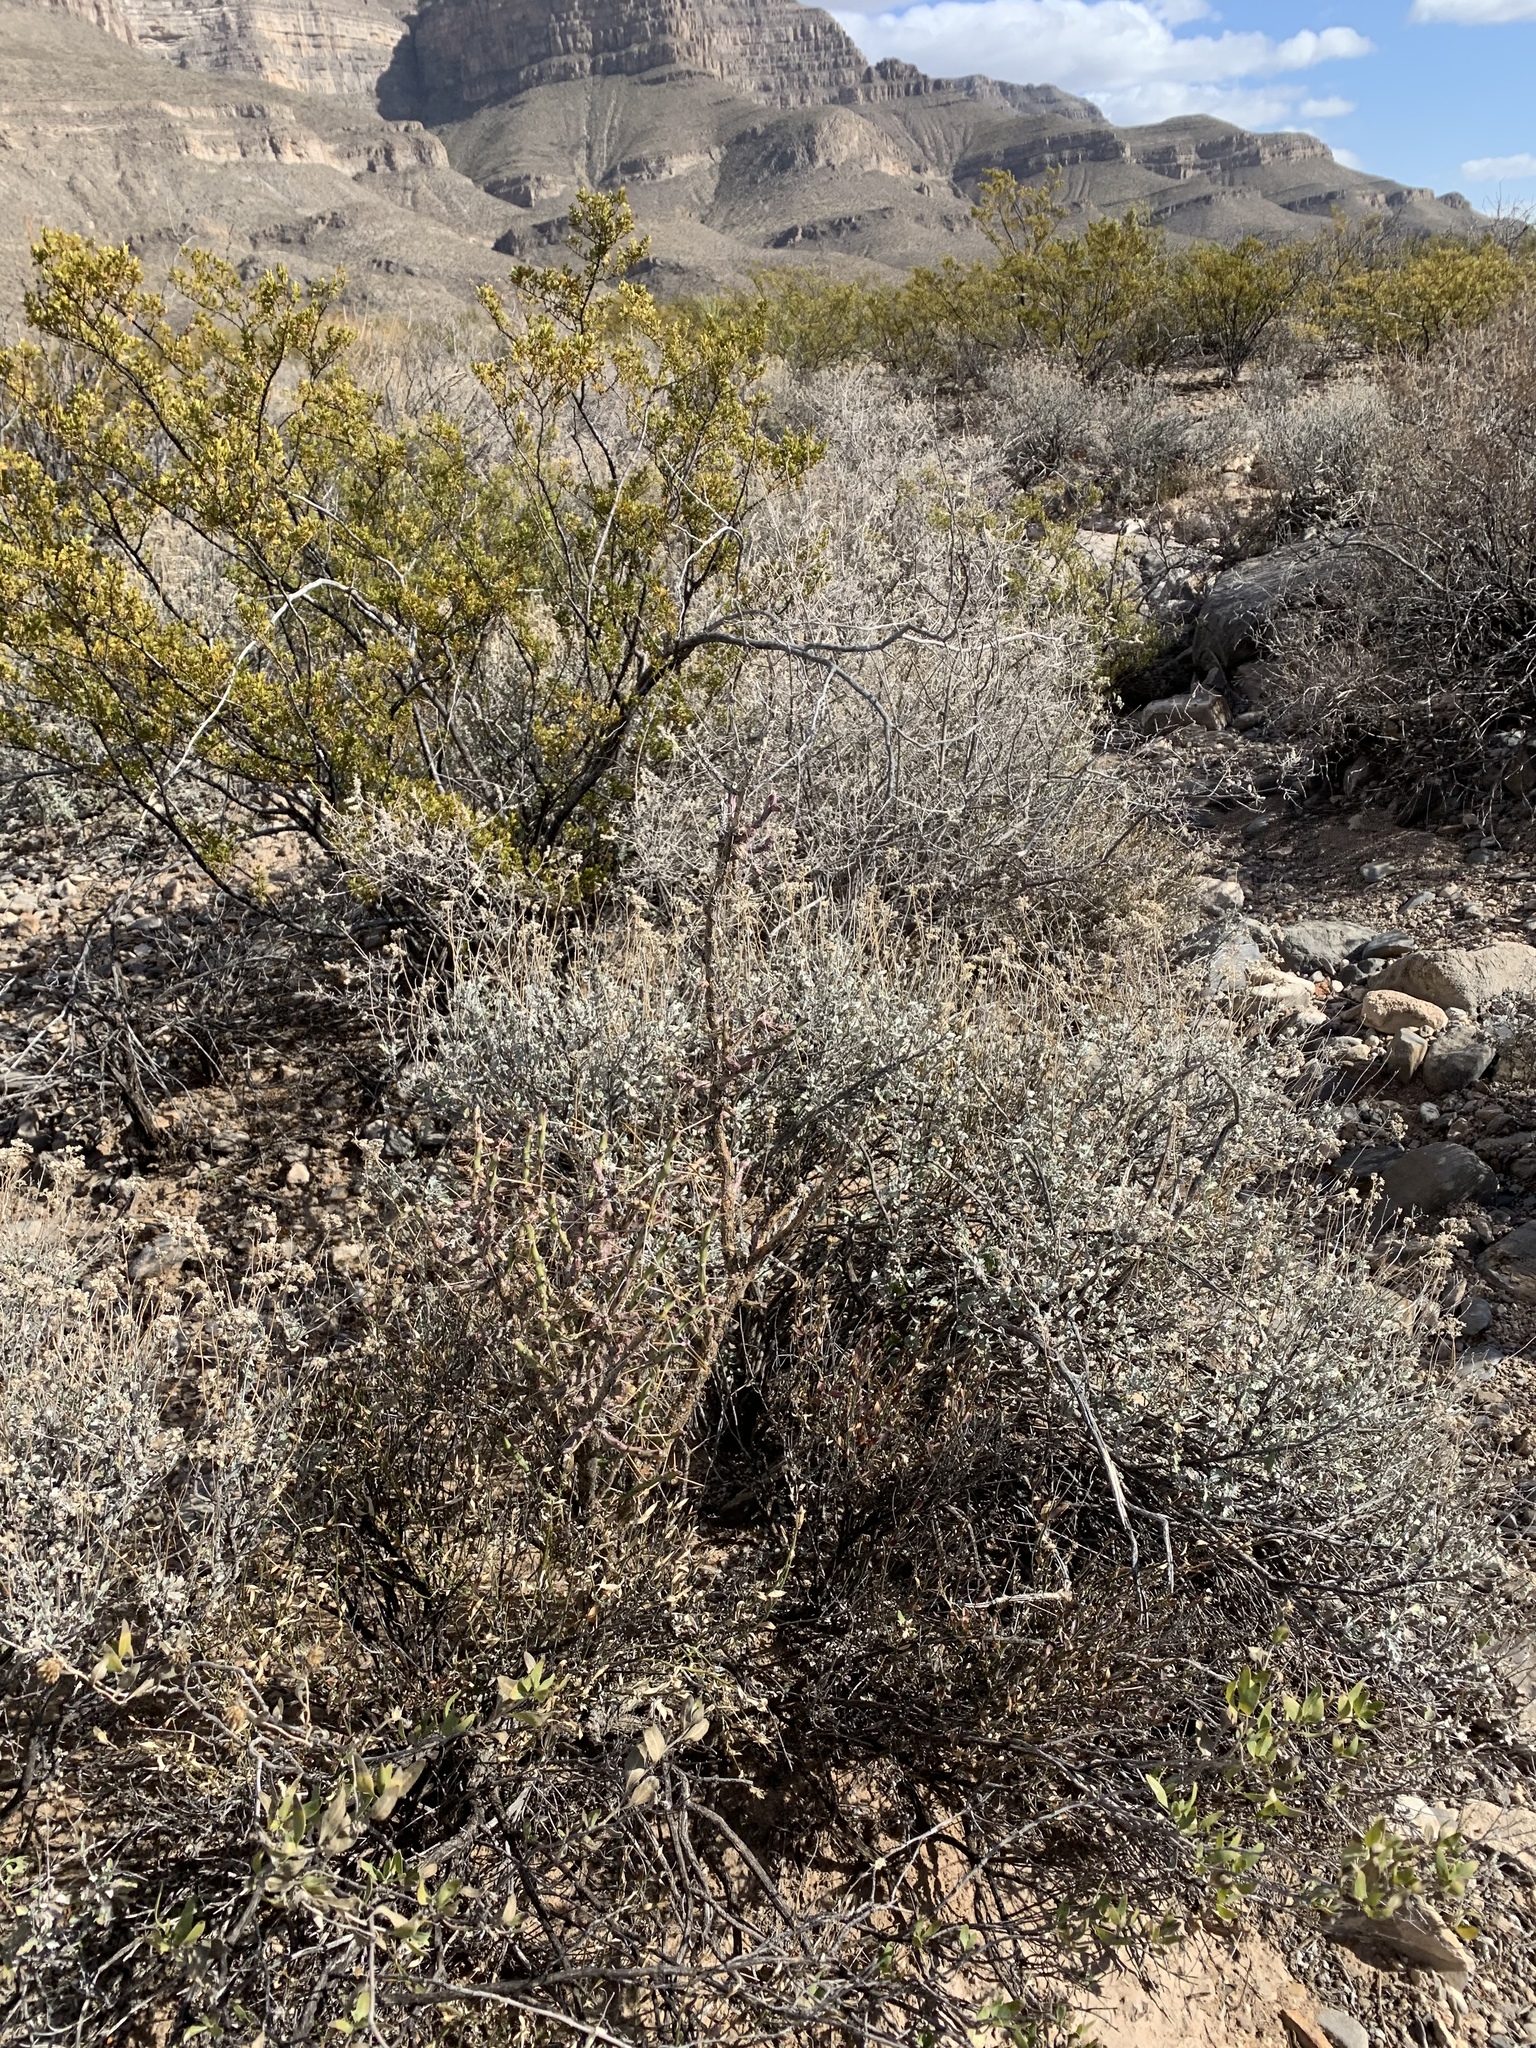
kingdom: Plantae
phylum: Tracheophyta
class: Magnoliopsida
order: Caryophyllales
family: Cactaceae
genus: Cylindropuntia
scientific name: Cylindropuntia leptocaulis
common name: Christmas cactus
